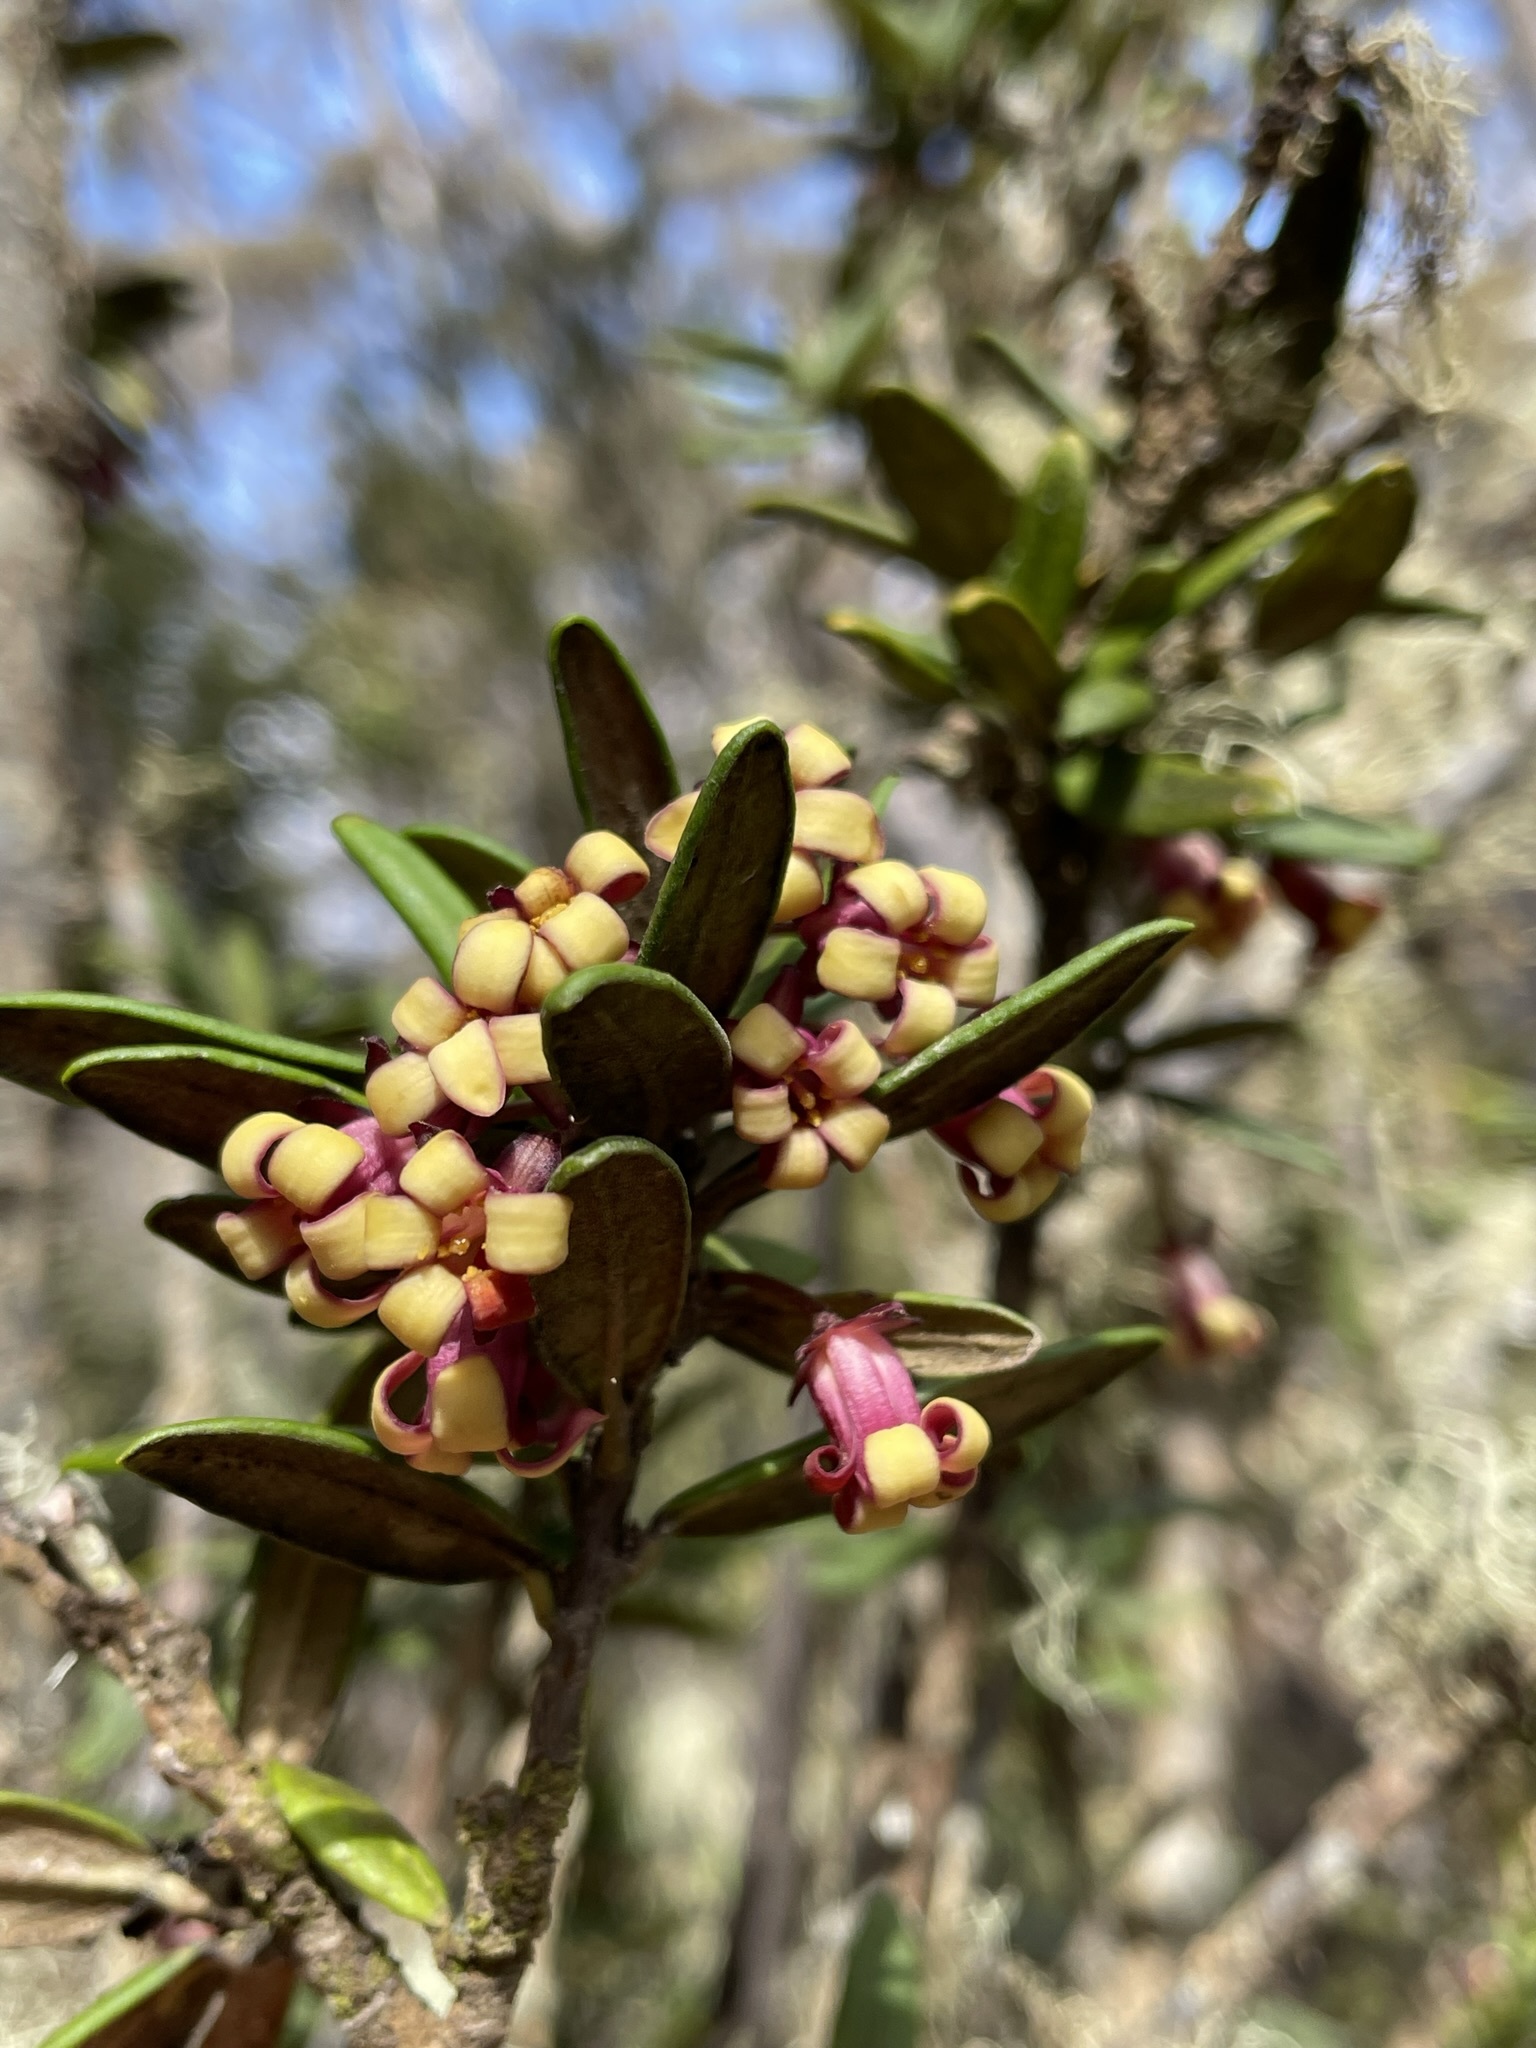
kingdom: Plantae
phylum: Tracheophyta
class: Magnoliopsida
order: Apiales
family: Pittosporaceae
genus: Pittosporum
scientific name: Pittosporum bicolor
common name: Tallowwood
